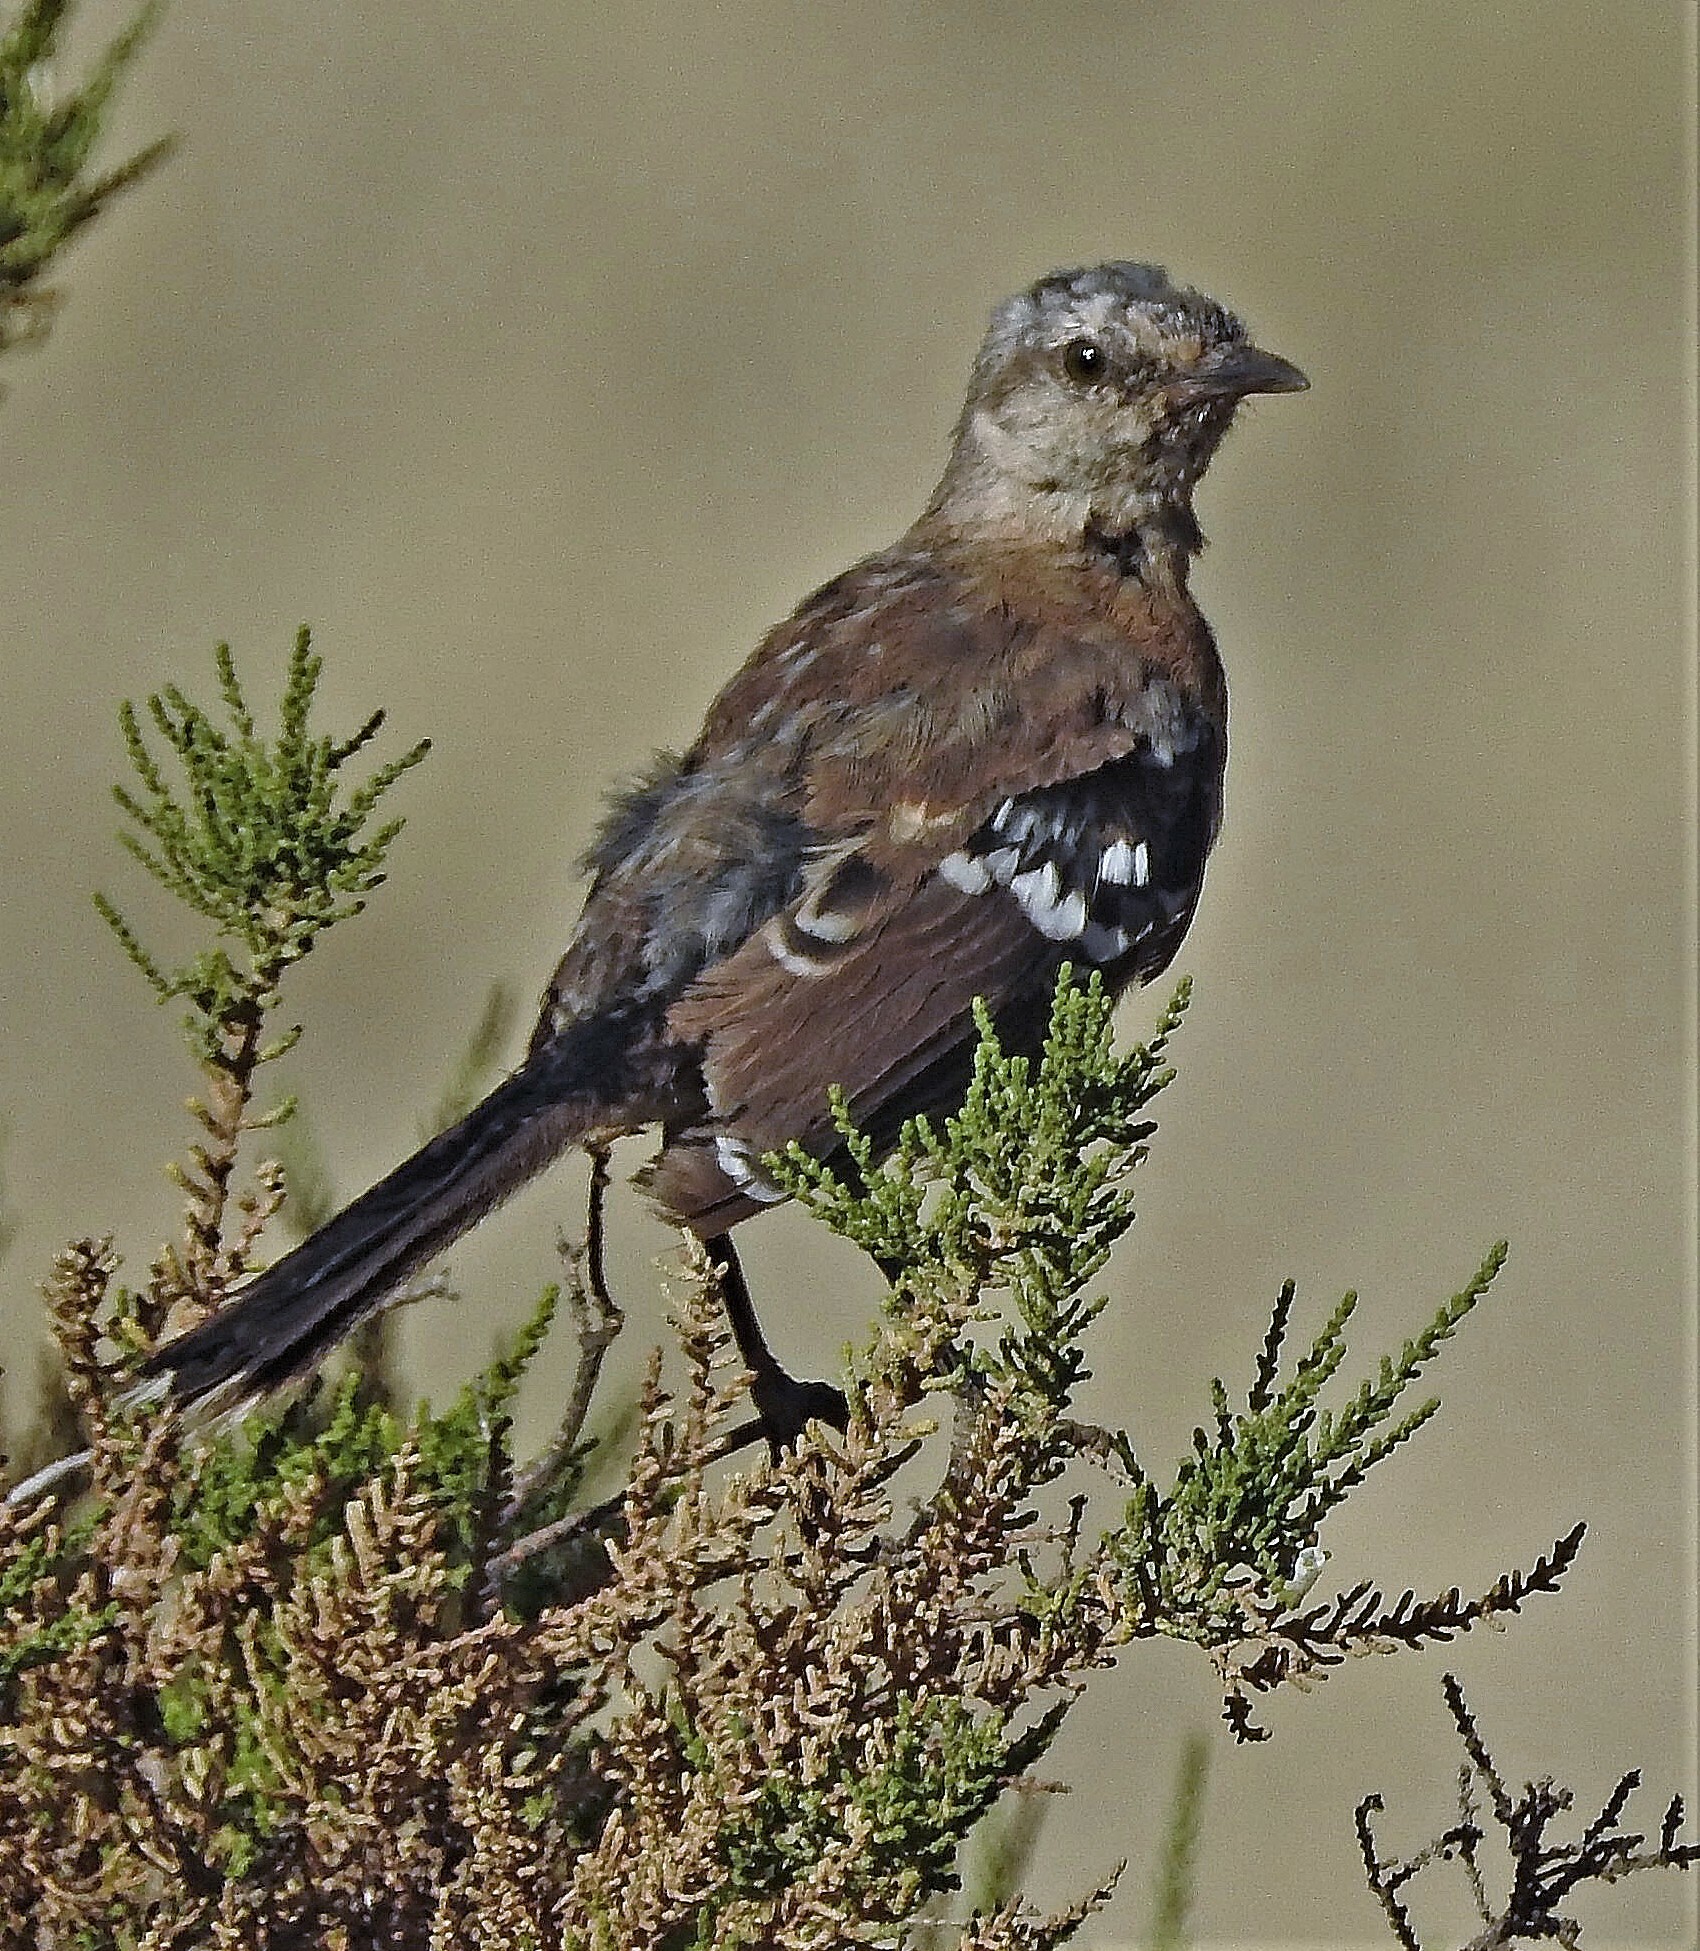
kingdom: Animalia
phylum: Chordata
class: Aves
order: Passeriformes
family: Mimidae
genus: Mimus
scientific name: Mimus patagonicus
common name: Patagonian mockingbird
